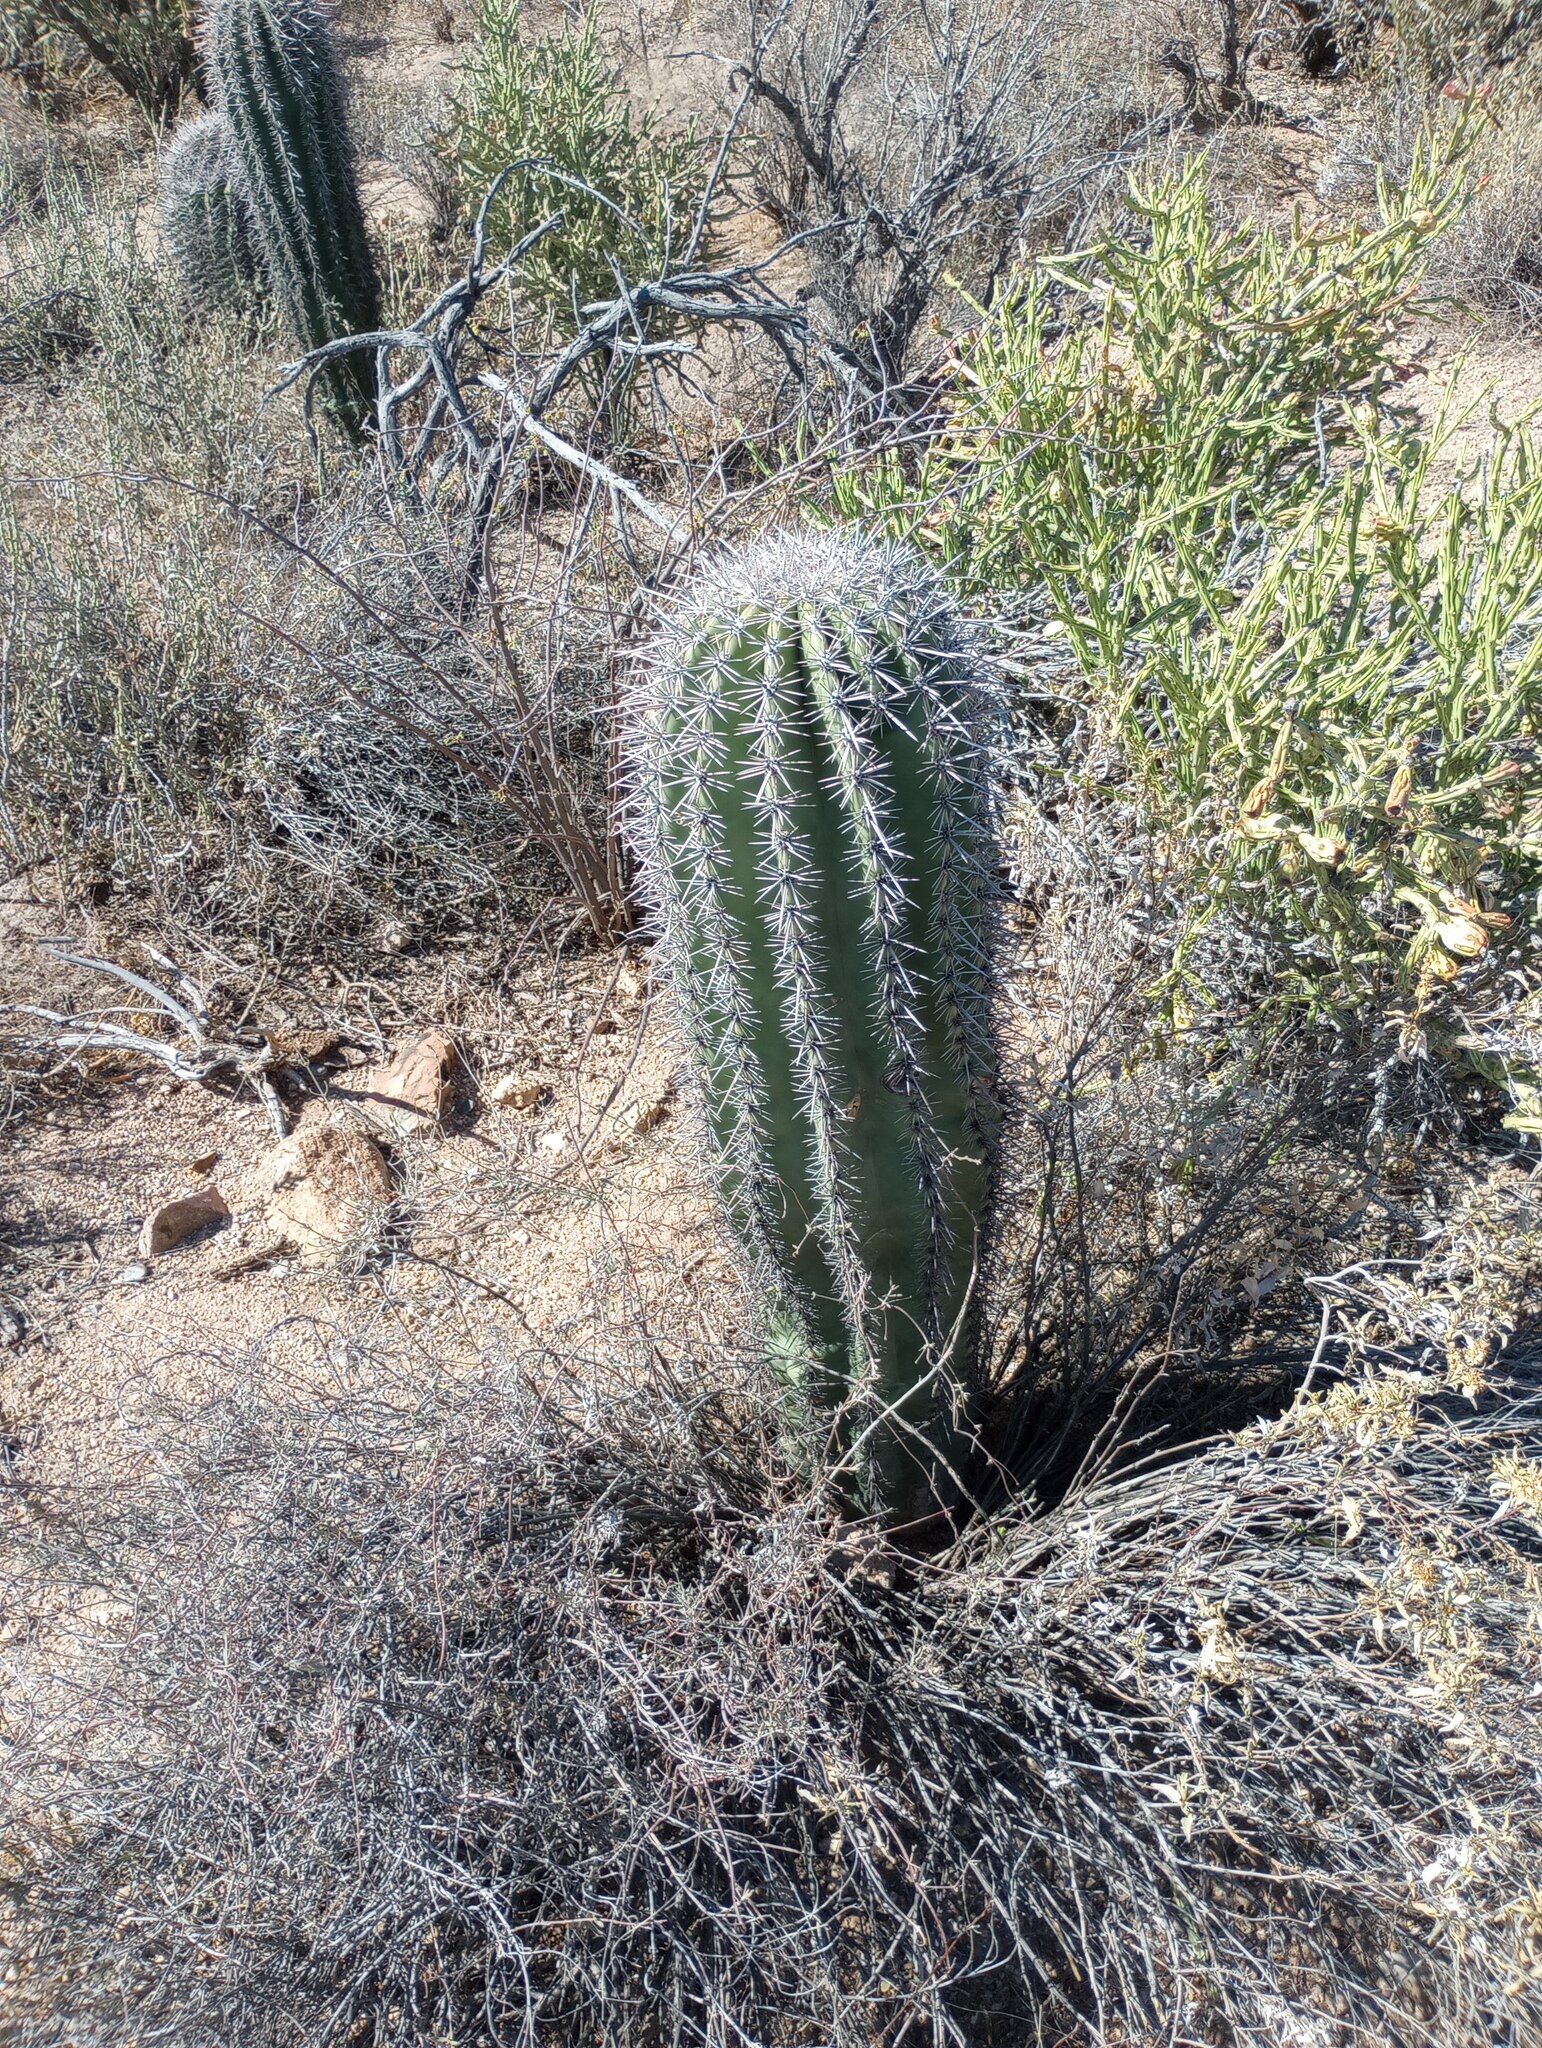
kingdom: Plantae
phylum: Tracheophyta
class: Magnoliopsida
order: Caryophyllales
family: Cactaceae
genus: Carnegiea
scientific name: Carnegiea gigantea
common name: Saguaro
